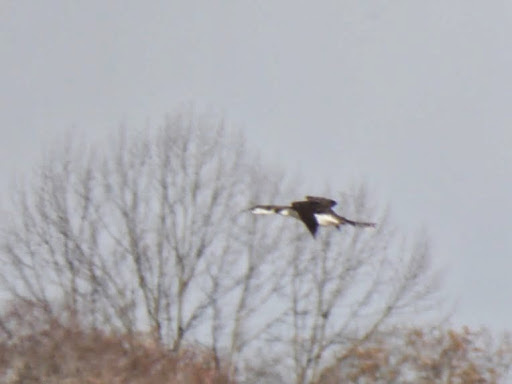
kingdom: Animalia
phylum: Chordata
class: Aves
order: Gaviiformes
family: Gaviidae
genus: Gavia
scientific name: Gavia immer
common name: Common loon
